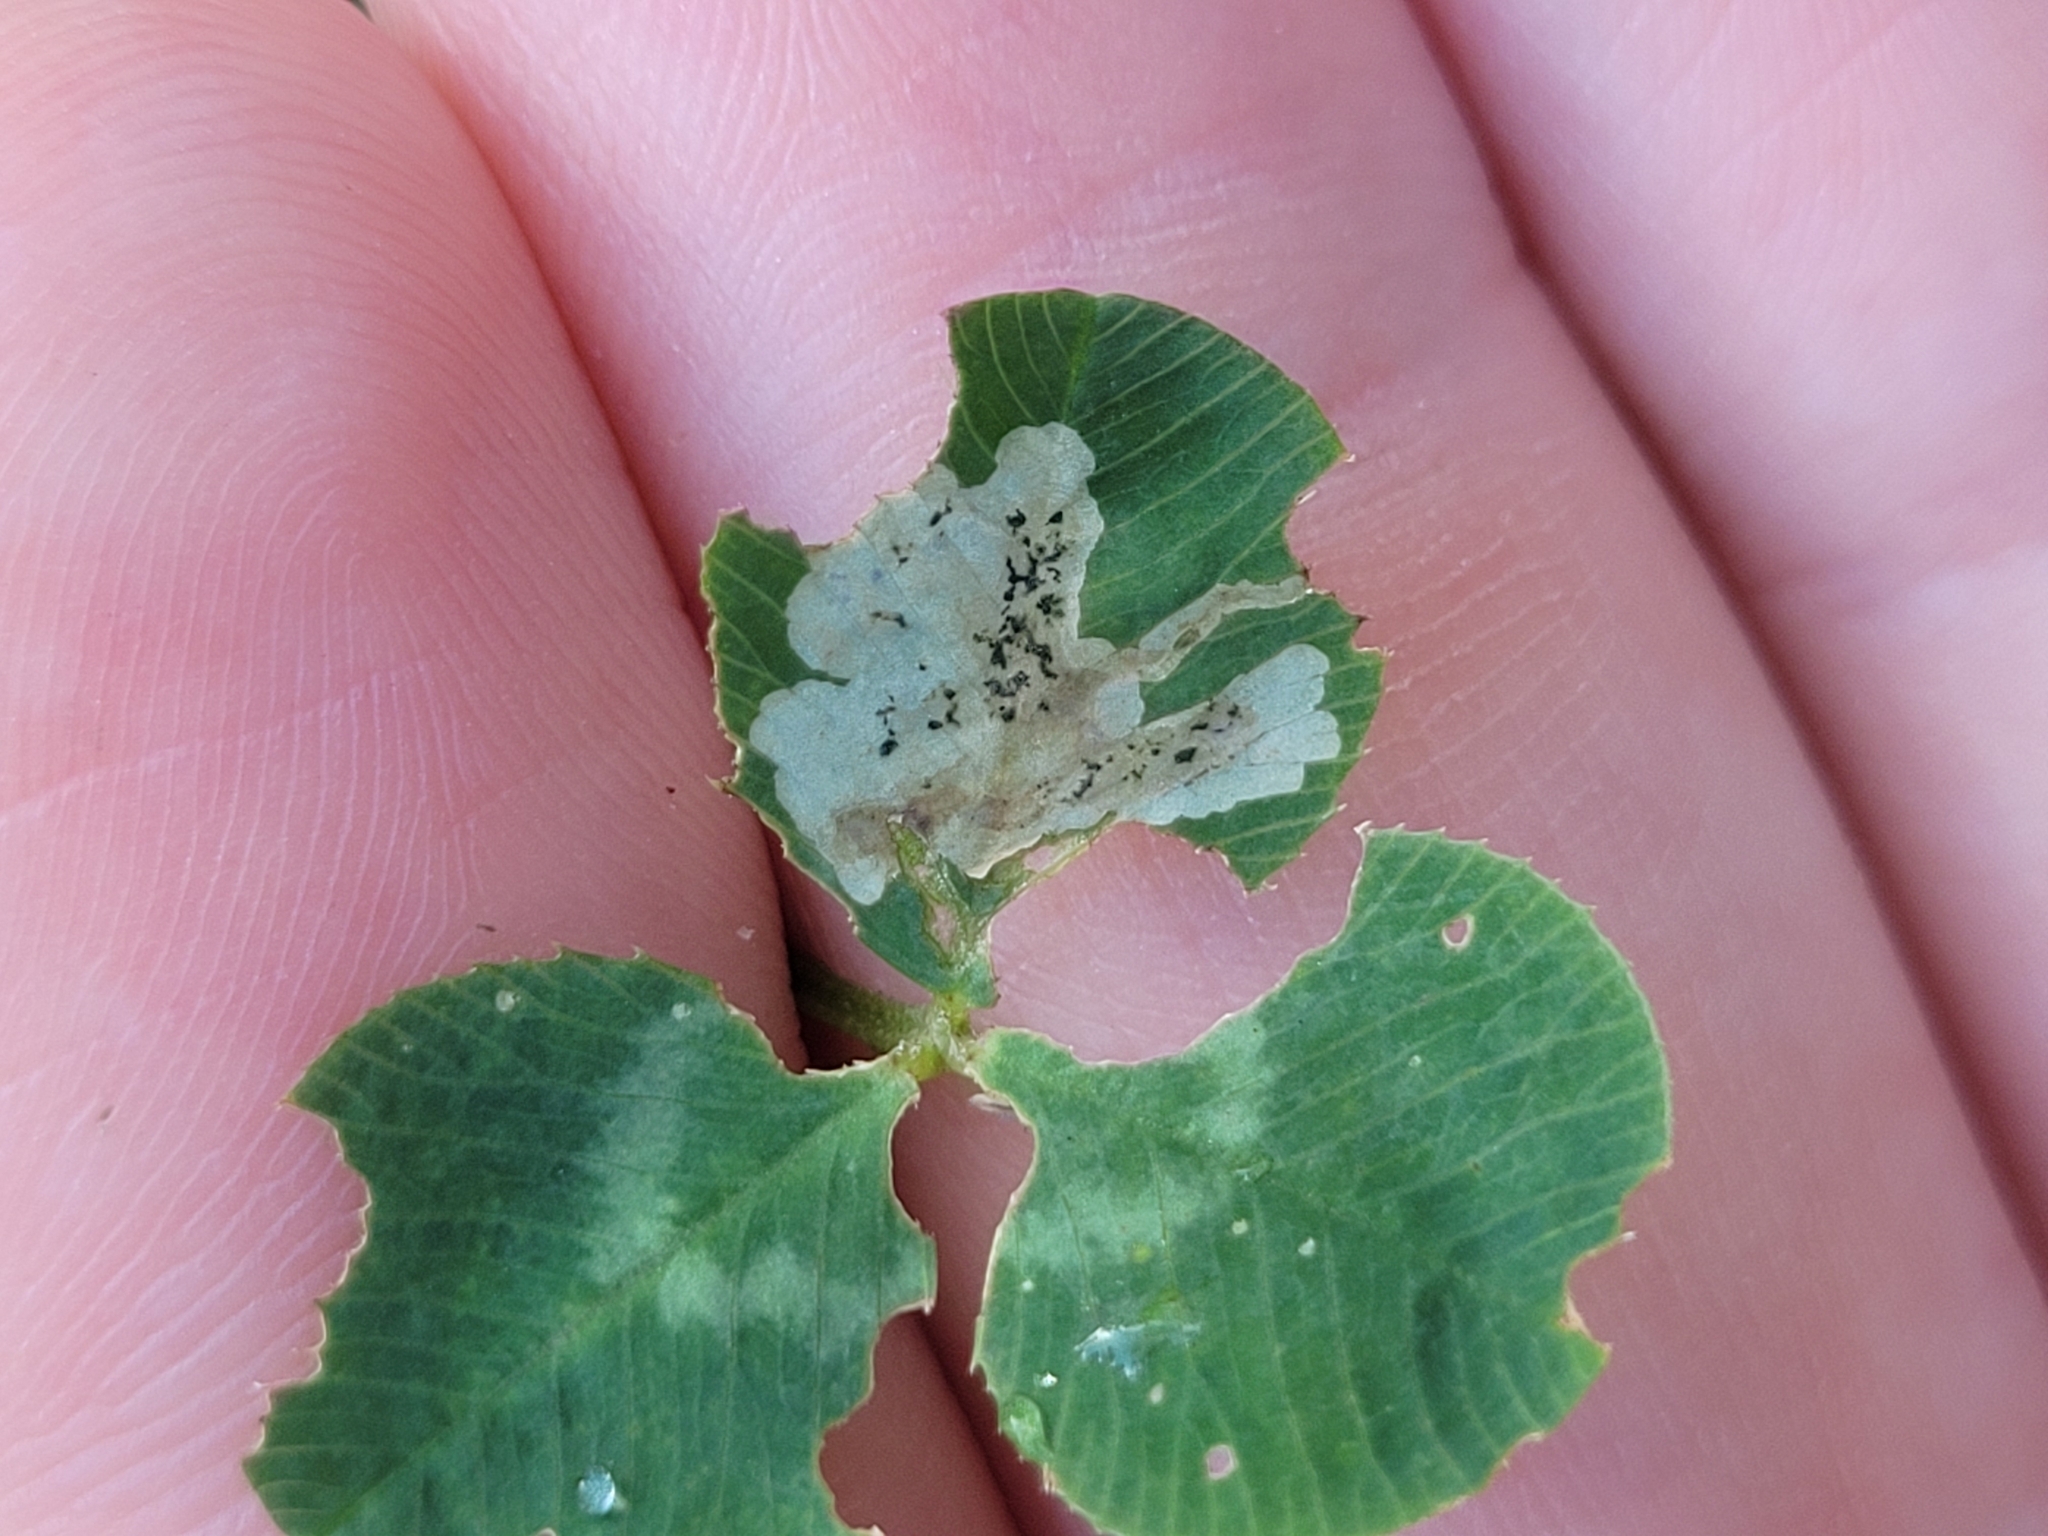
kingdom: Animalia
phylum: Arthropoda
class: Insecta
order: Diptera
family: Agromyzidae
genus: Liriomyza
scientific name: Liriomyza fricki
